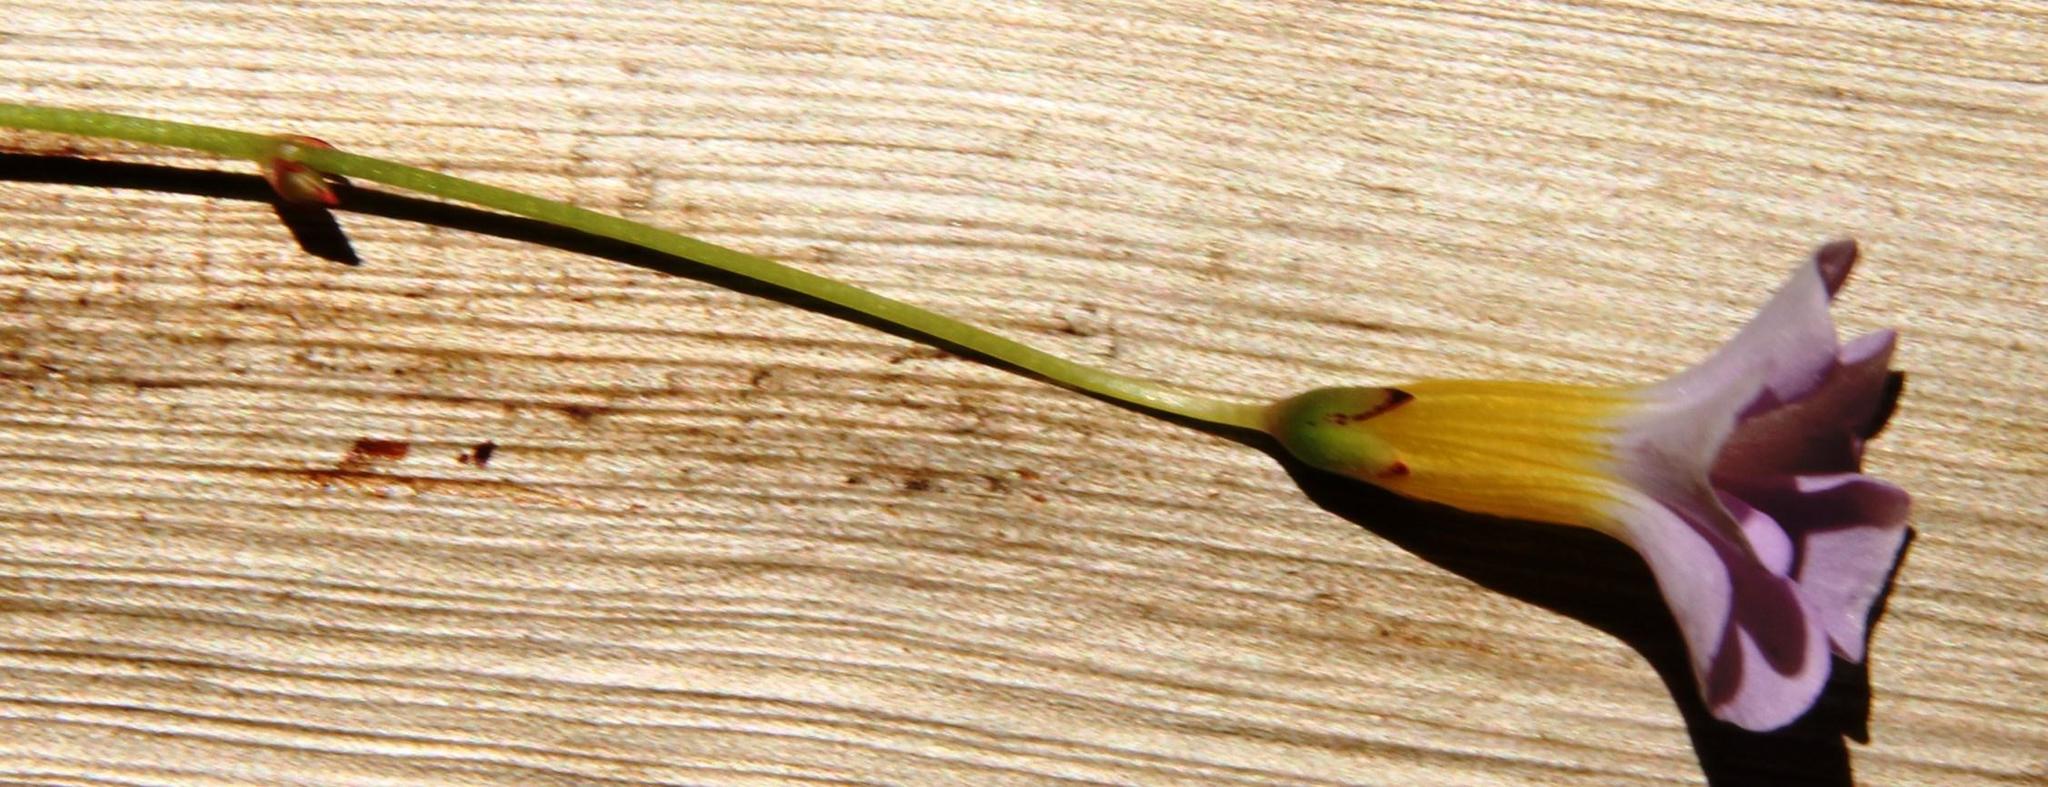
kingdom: Plantae
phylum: Tracheophyta
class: Magnoliopsida
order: Oxalidales
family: Oxalidaceae
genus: Oxalis
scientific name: Oxalis caprina
